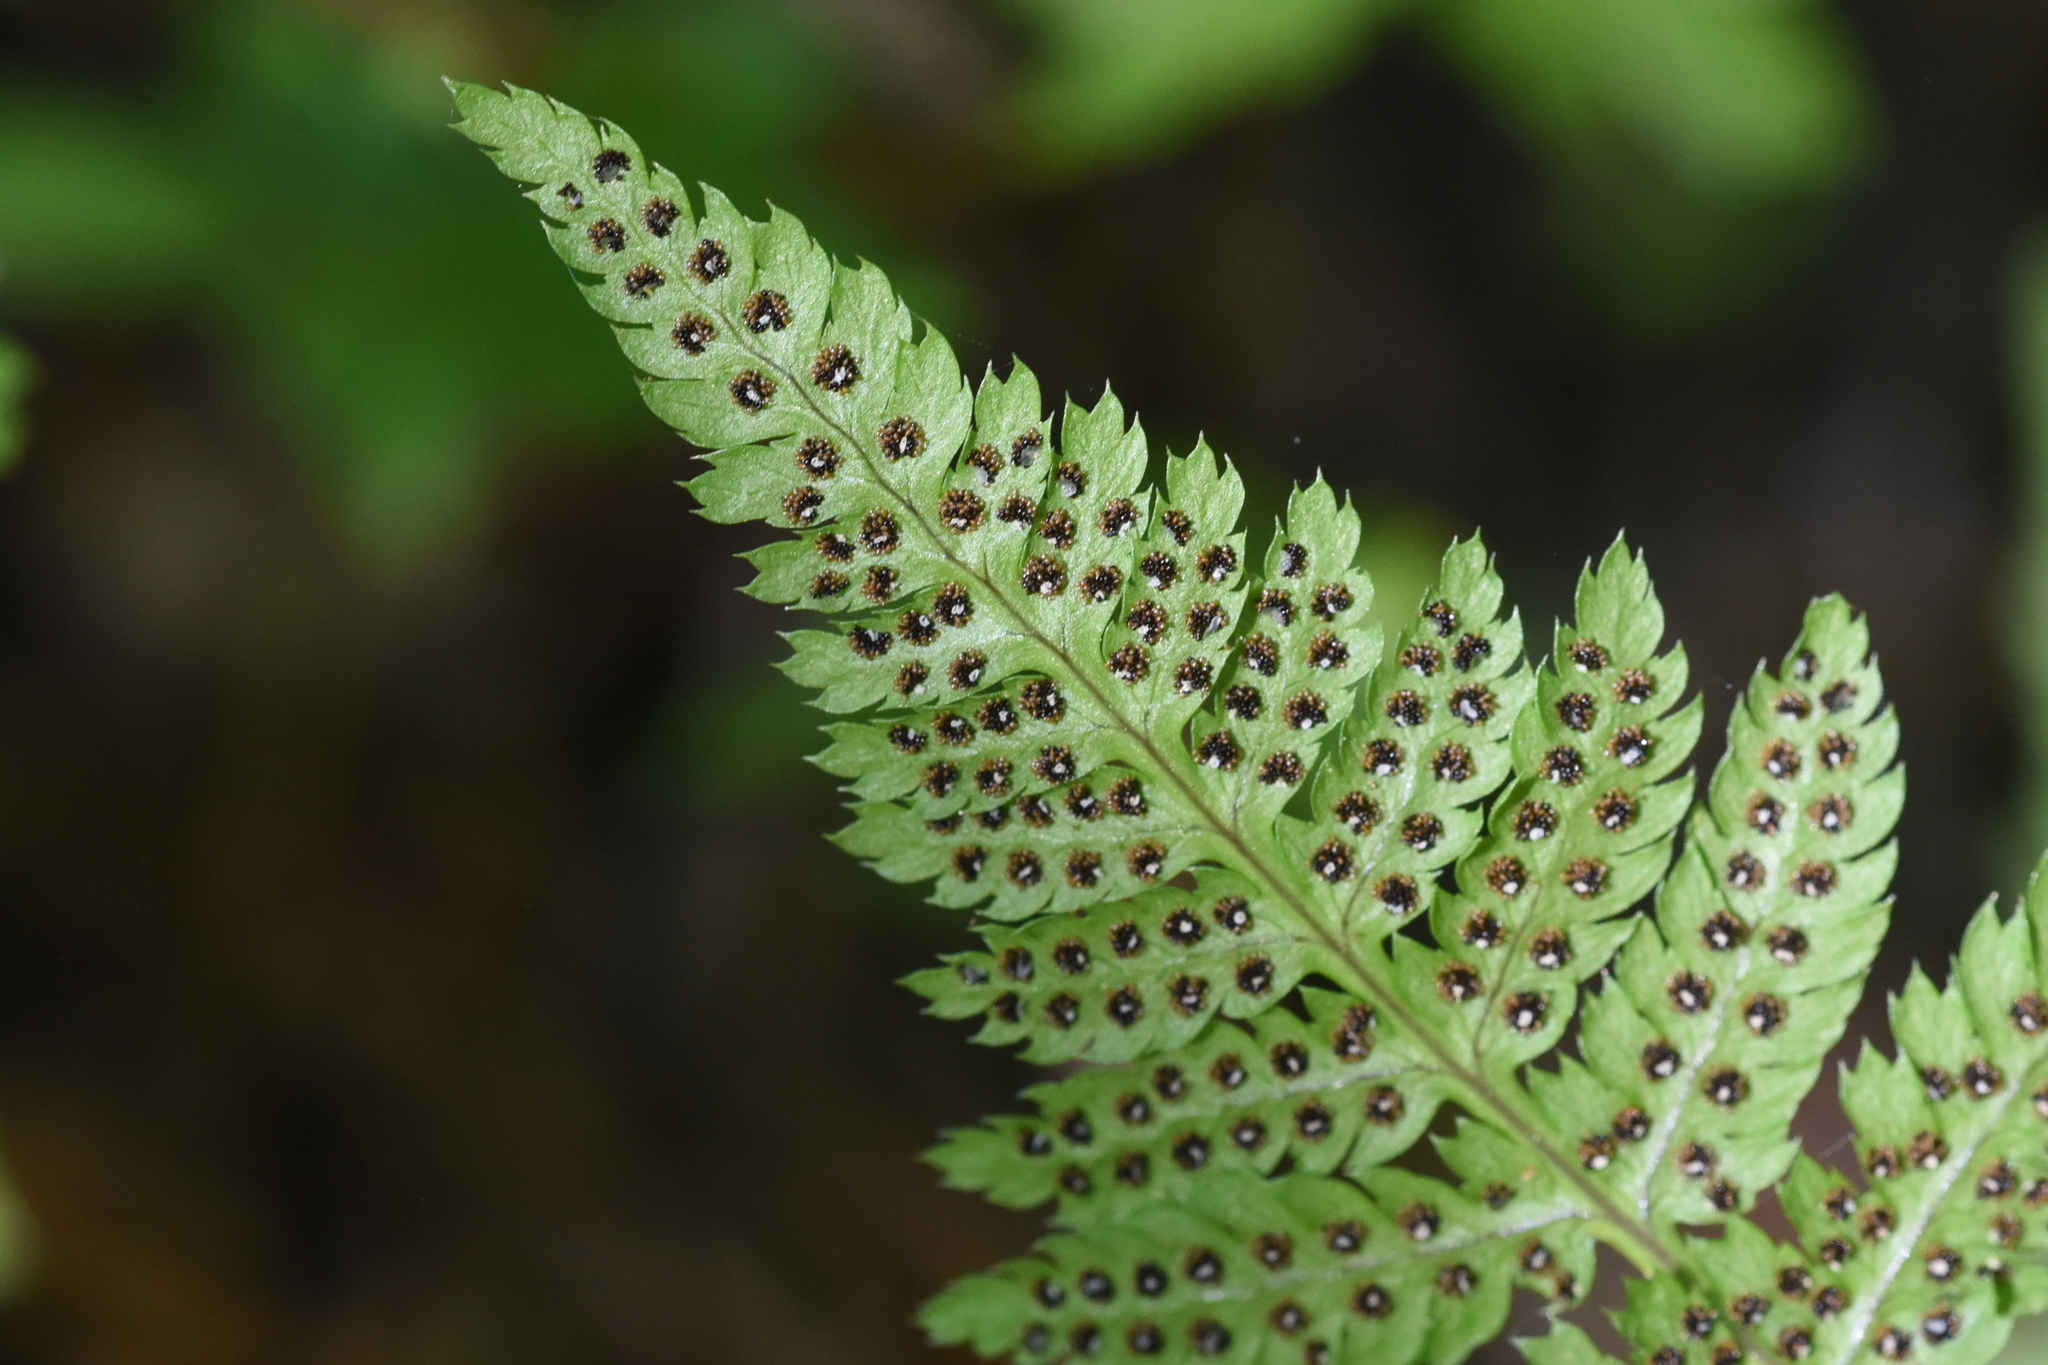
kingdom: Plantae
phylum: Tracheophyta
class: Polypodiopsida
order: Polypodiales
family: Dryopteridaceae
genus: Dryopteris
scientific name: Dryopteris carthusiana
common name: Narrow buckler-fern
